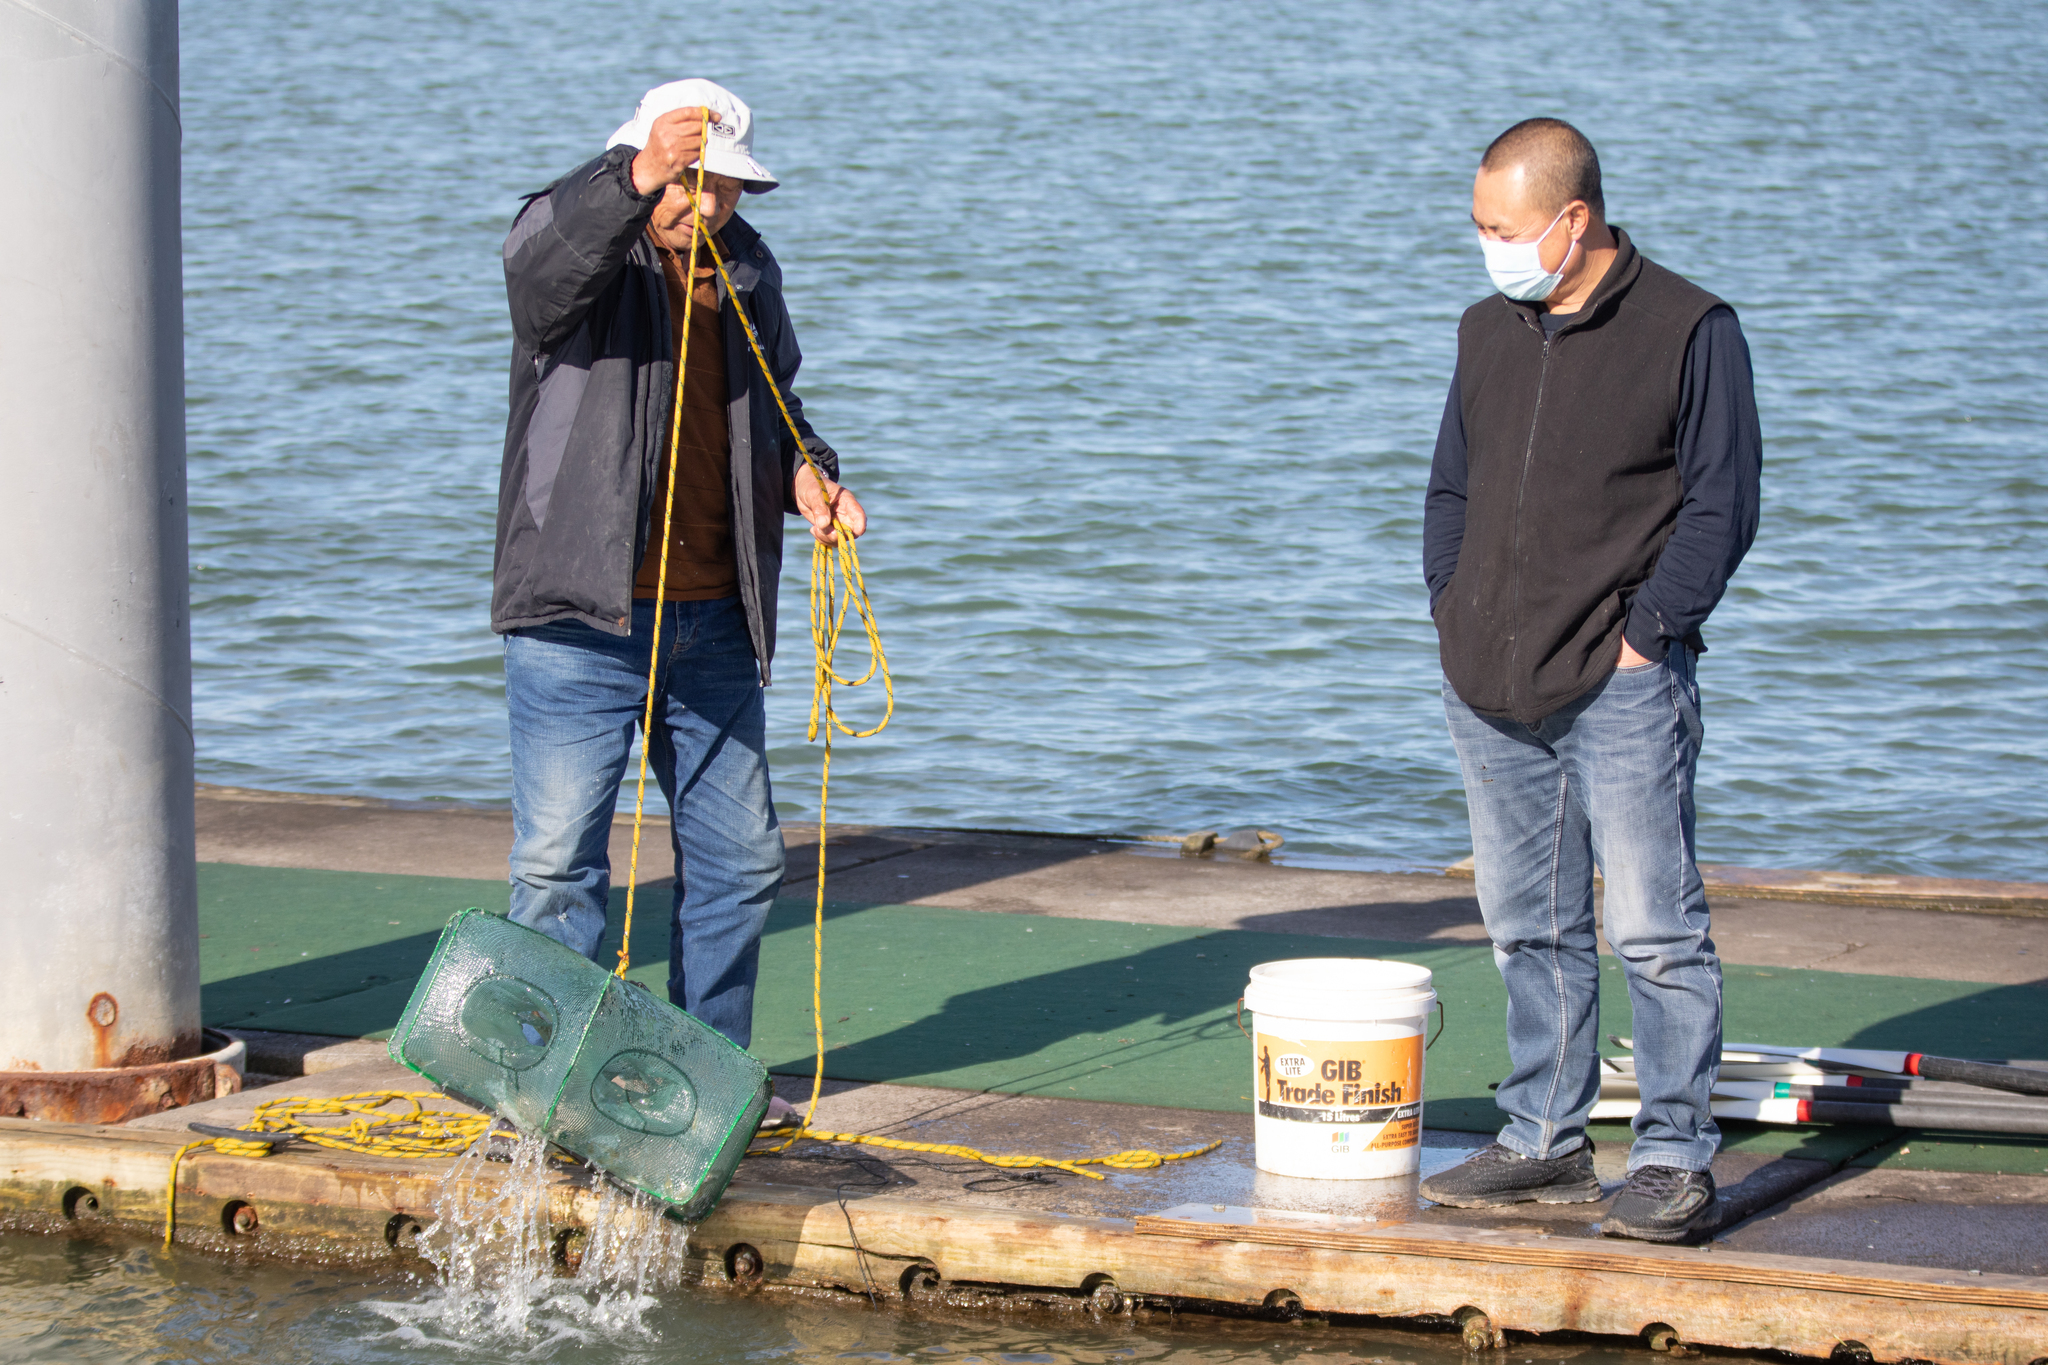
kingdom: Animalia
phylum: Arthropoda
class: Malacostraca
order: Decapoda
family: Palaemonidae
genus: Palaemon
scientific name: Palaemon affinis
